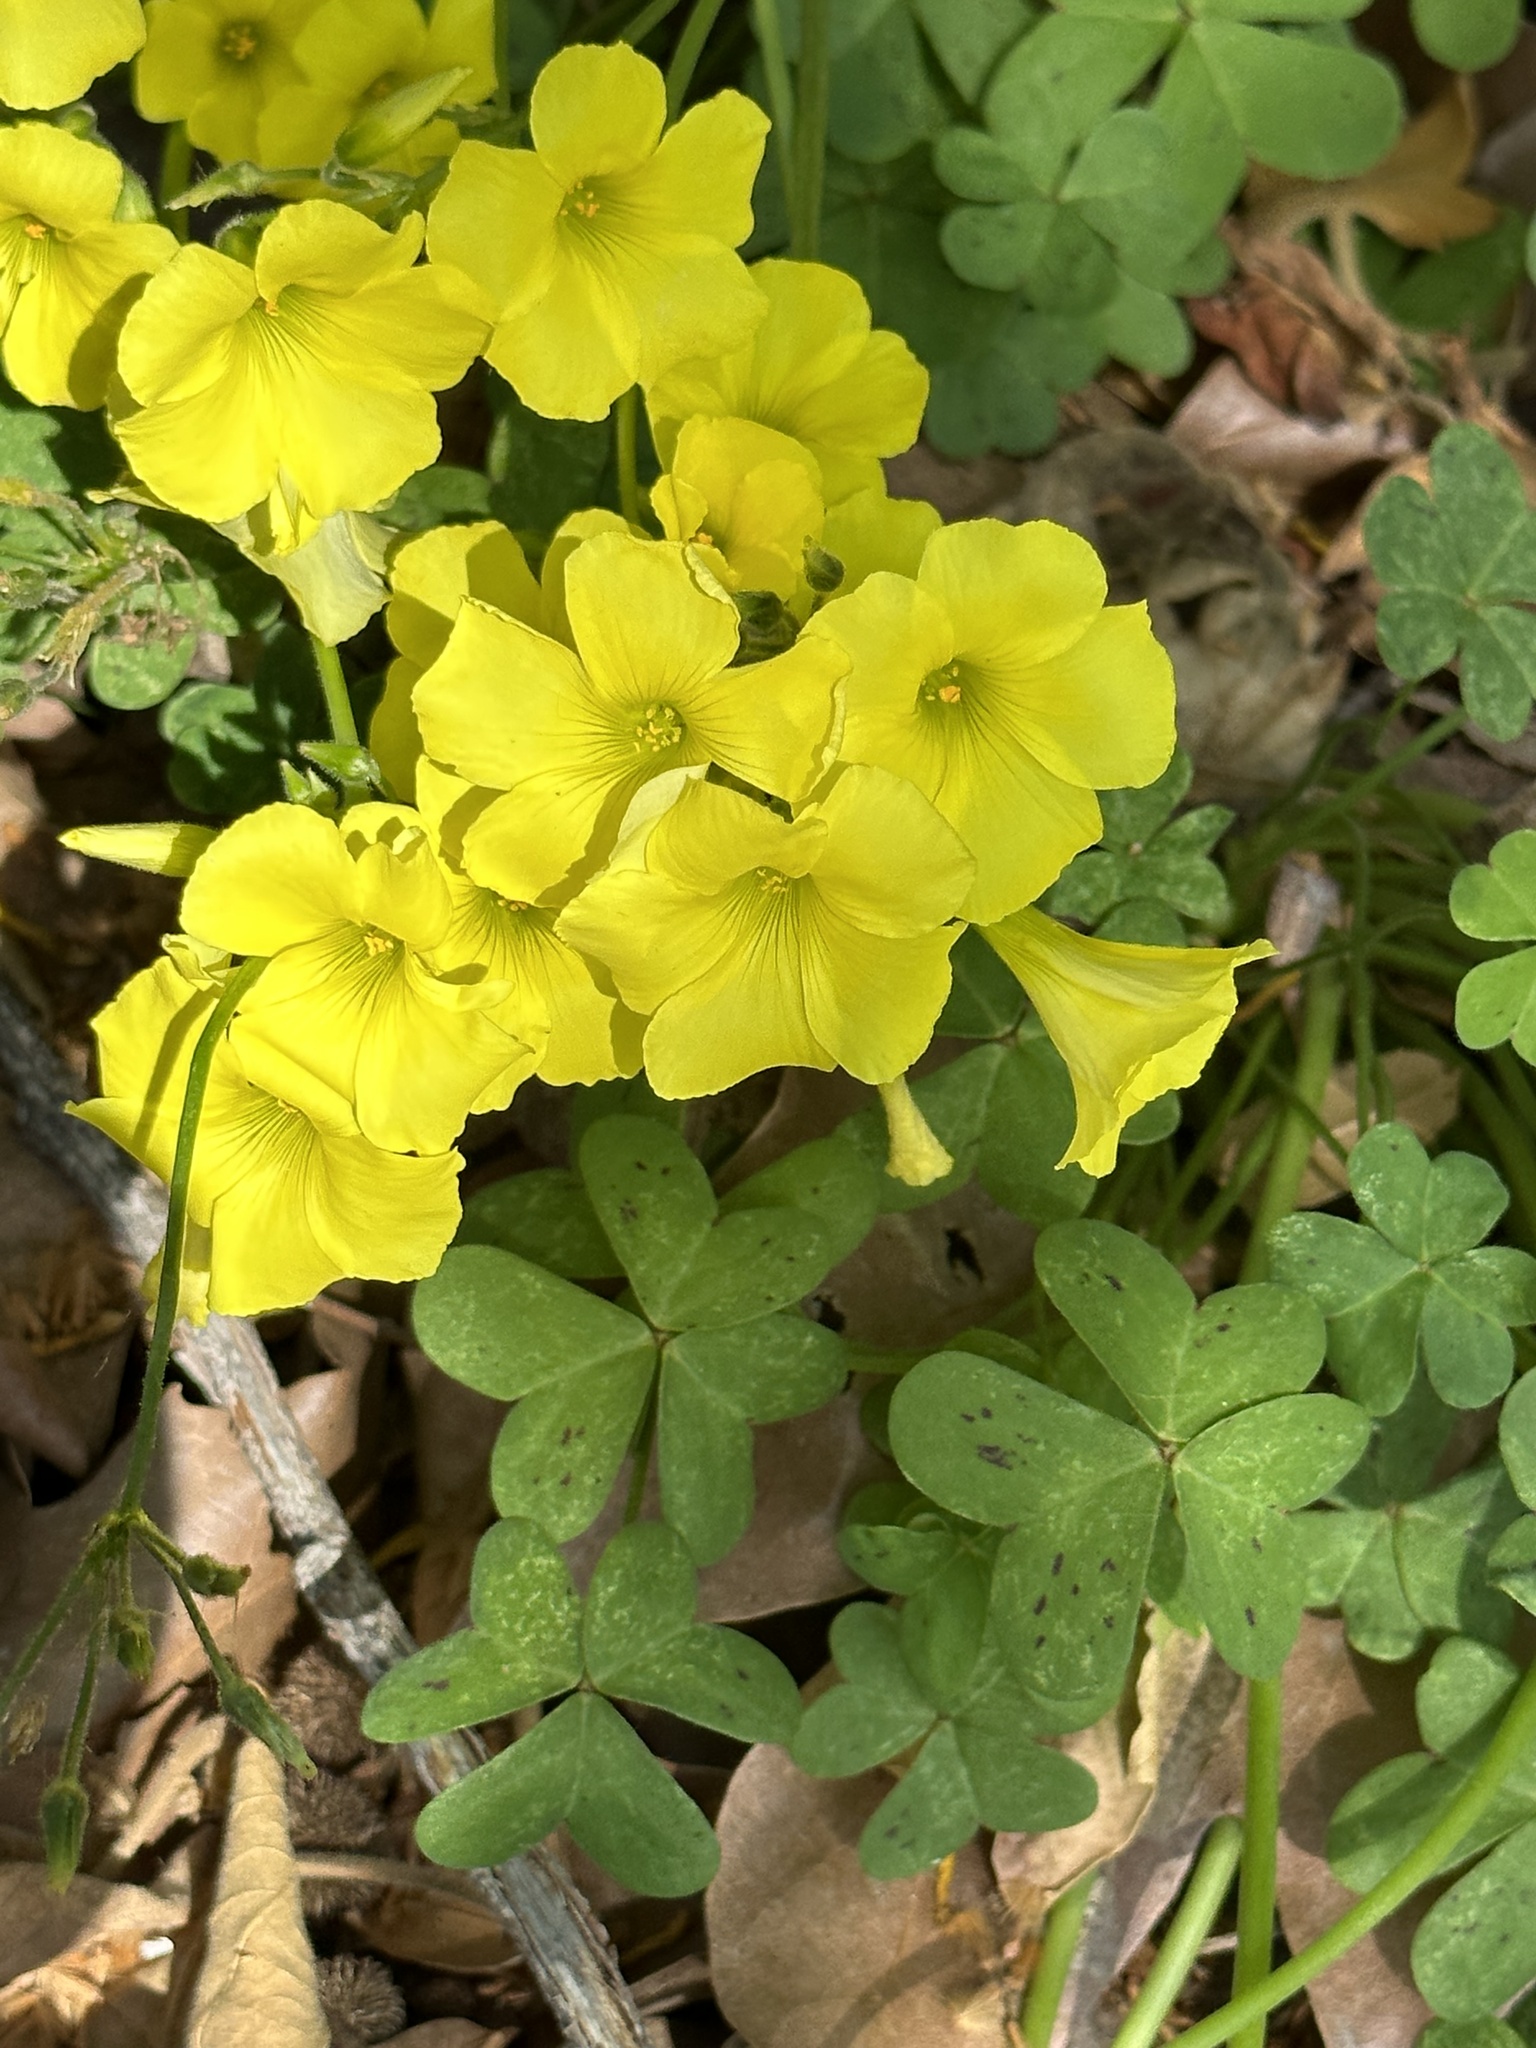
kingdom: Plantae
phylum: Tracheophyta
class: Magnoliopsida
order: Oxalidales
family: Oxalidaceae
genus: Oxalis
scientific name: Oxalis pes-caprae
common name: Bermuda-buttercup
